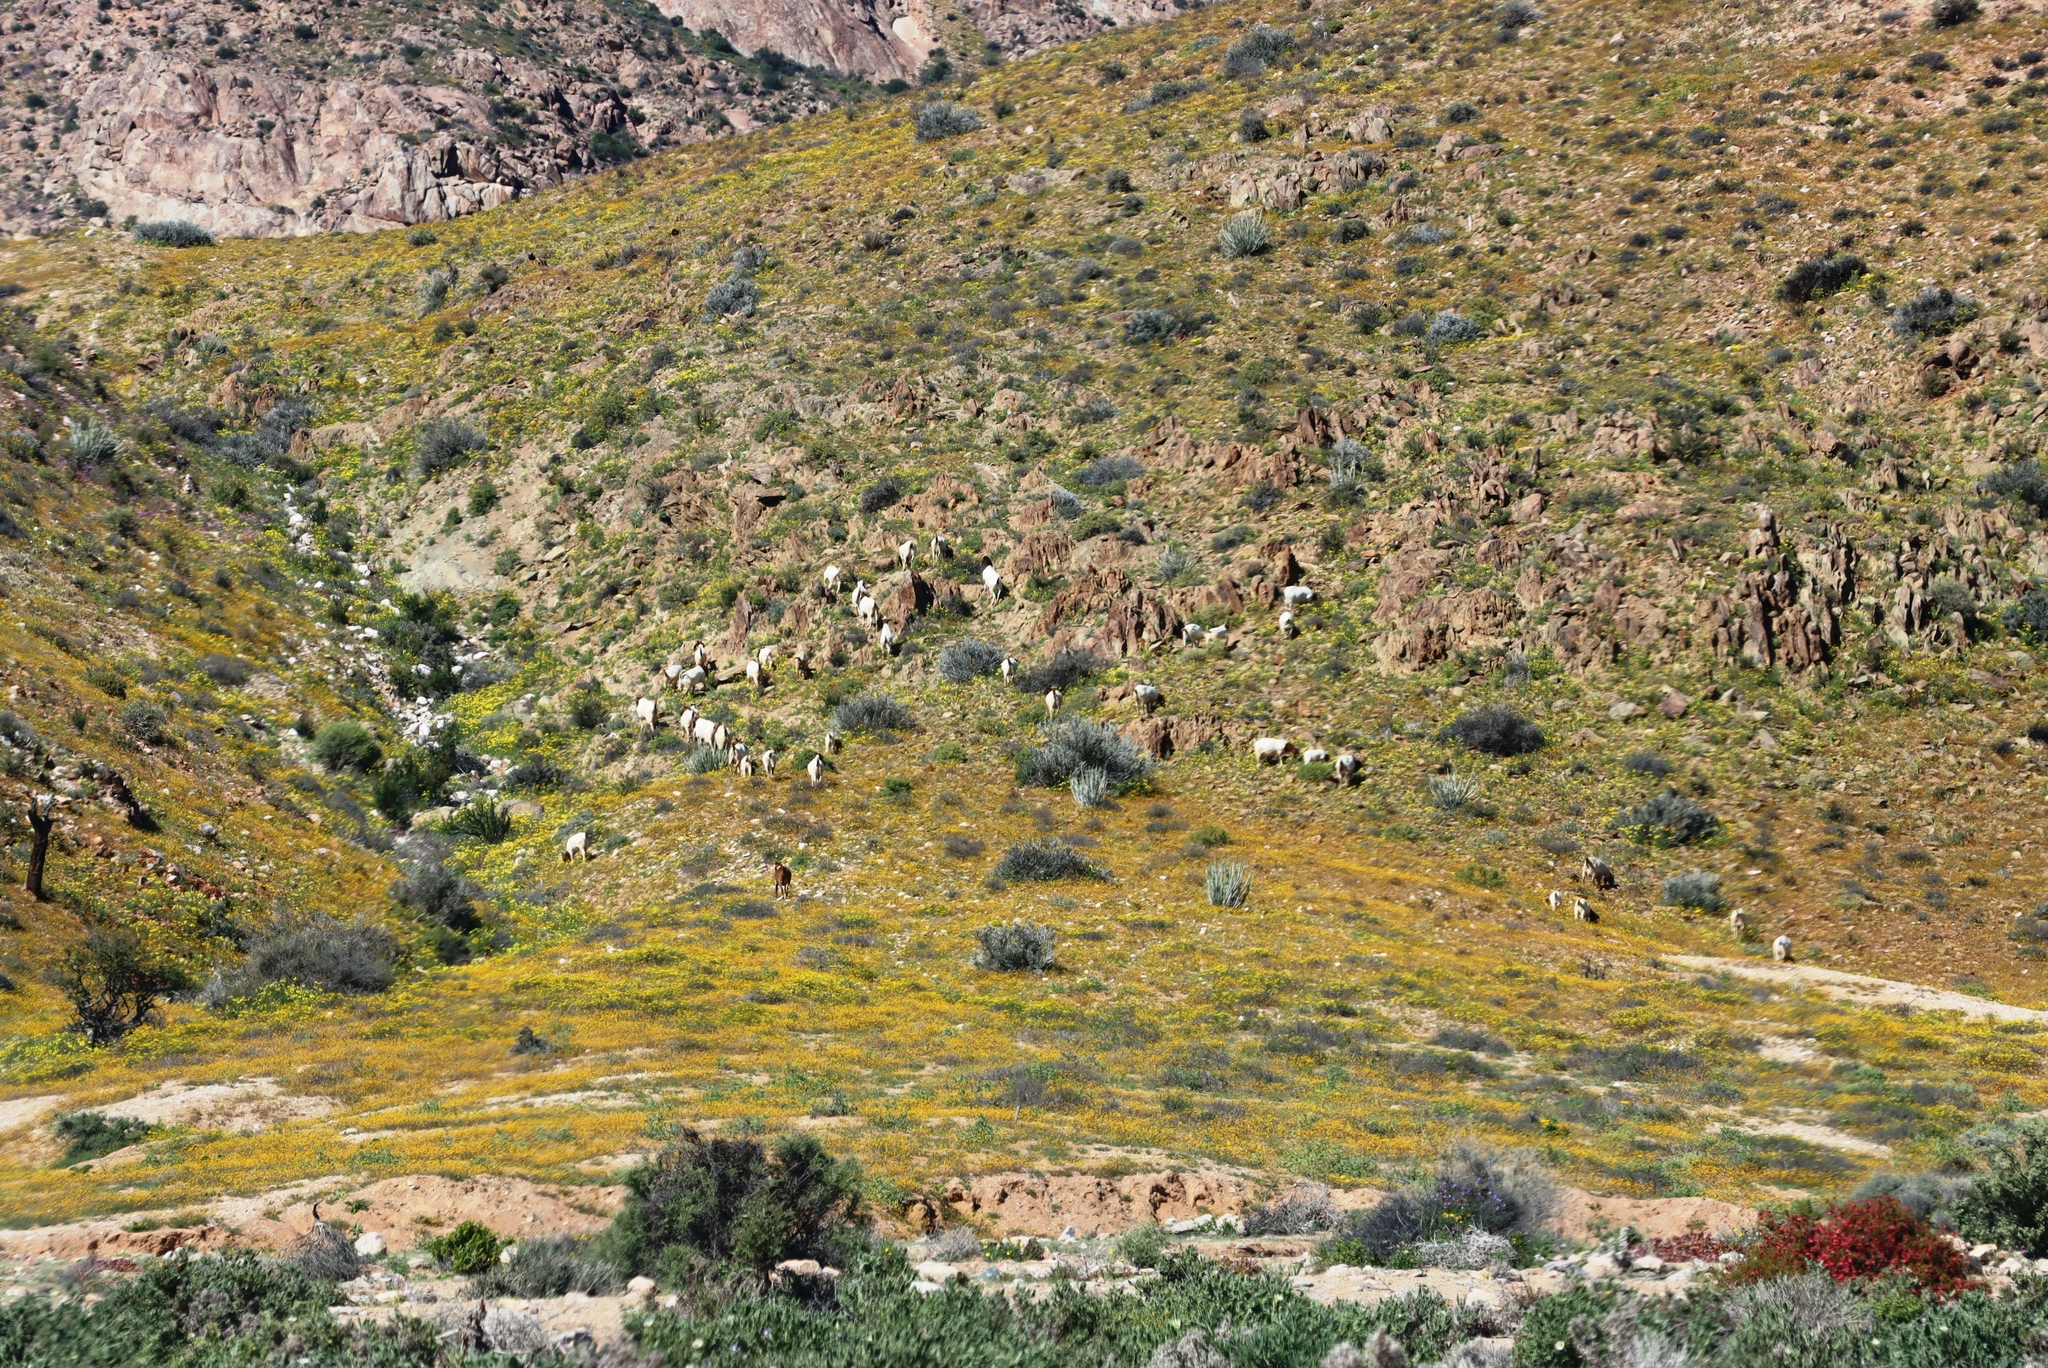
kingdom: Animalia
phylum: Chordata
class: Mammalia
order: Artiodactyla
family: Bovidae
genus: Capra
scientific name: Capra hircus
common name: Domestic goat
